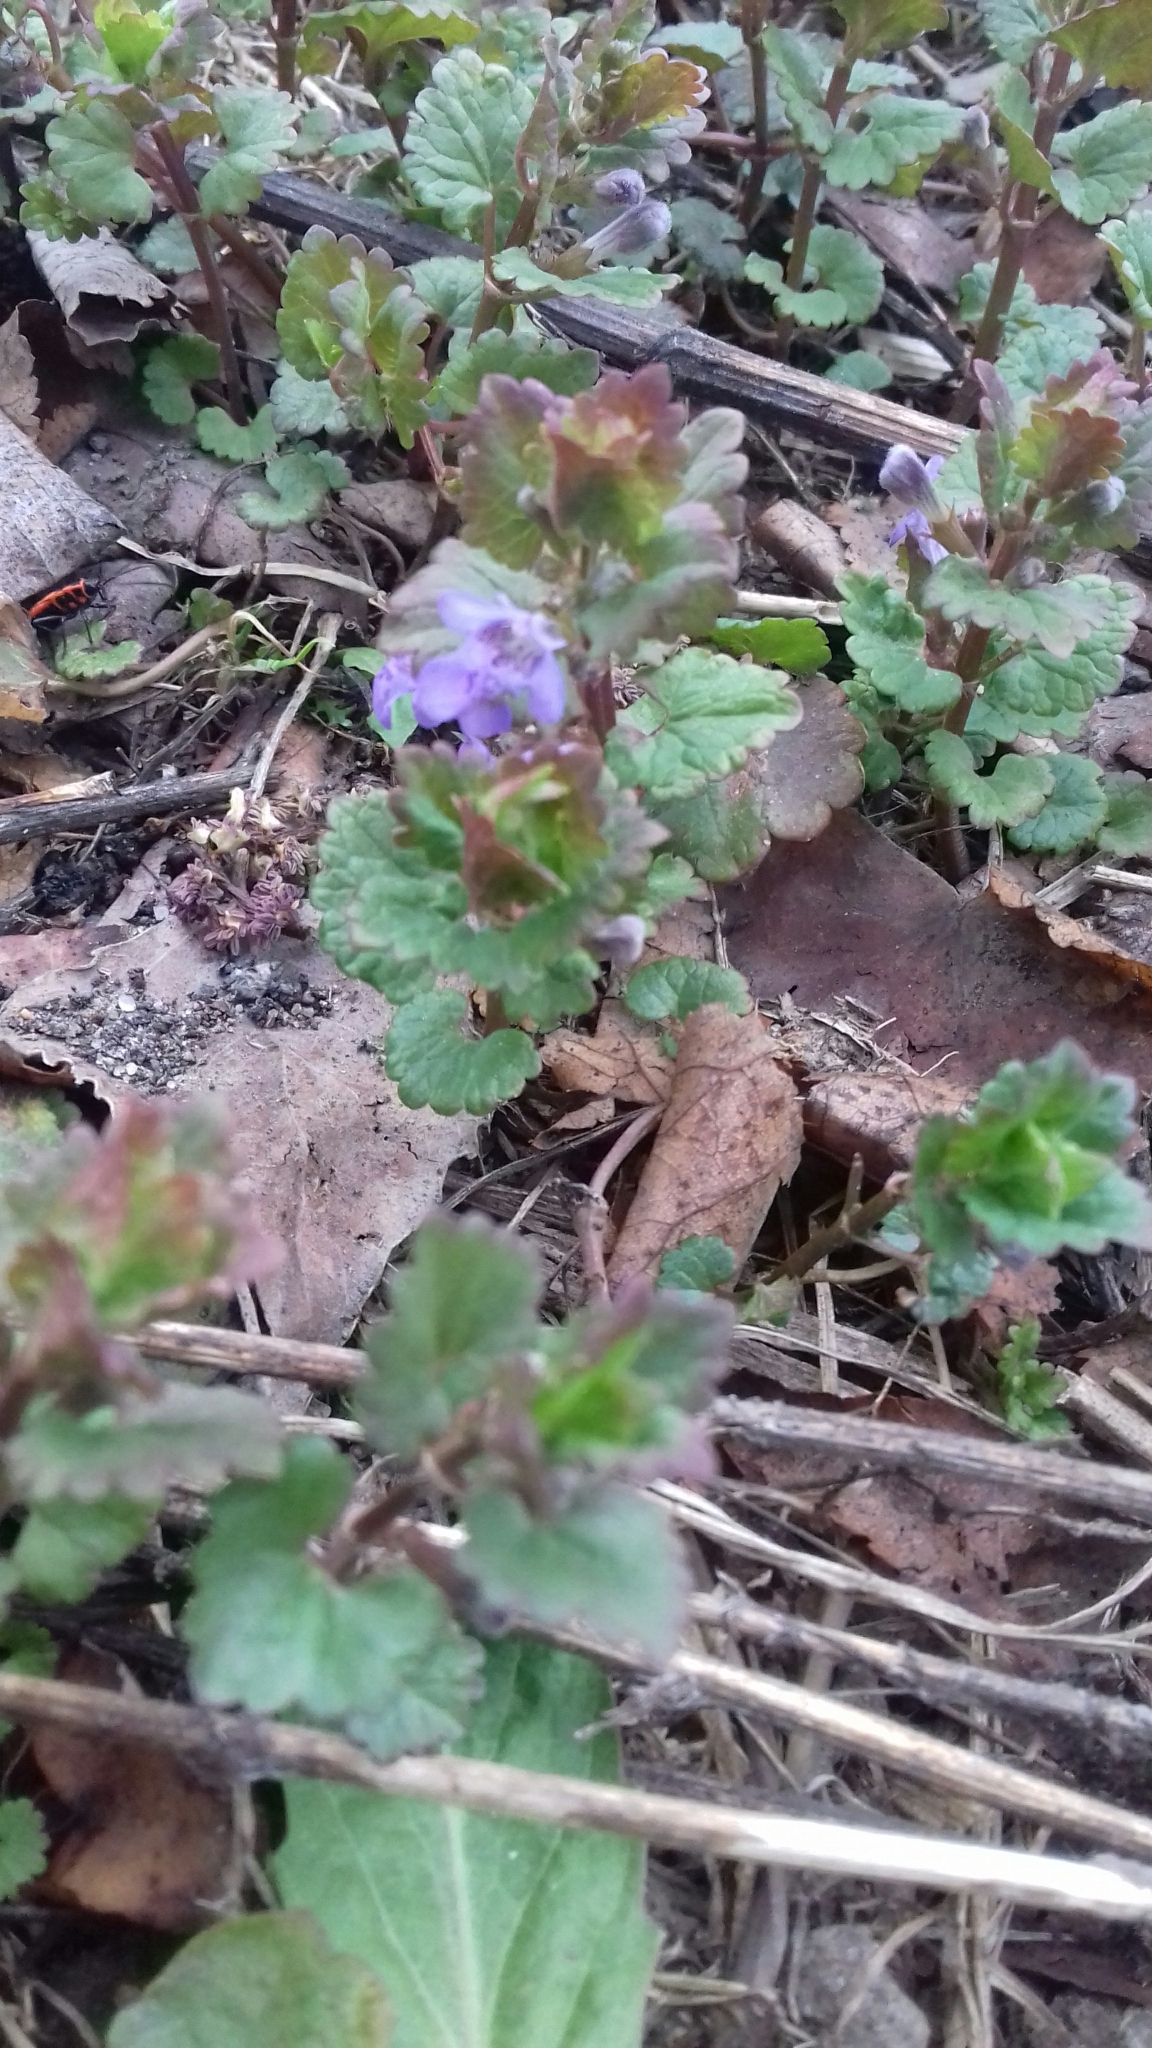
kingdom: Plantae
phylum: Tracheophyta
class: Magnoliopsida
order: Lamiales
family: Lamiaceae
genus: Glechoma
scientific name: Glechoma hederacea
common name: Ground ivy
